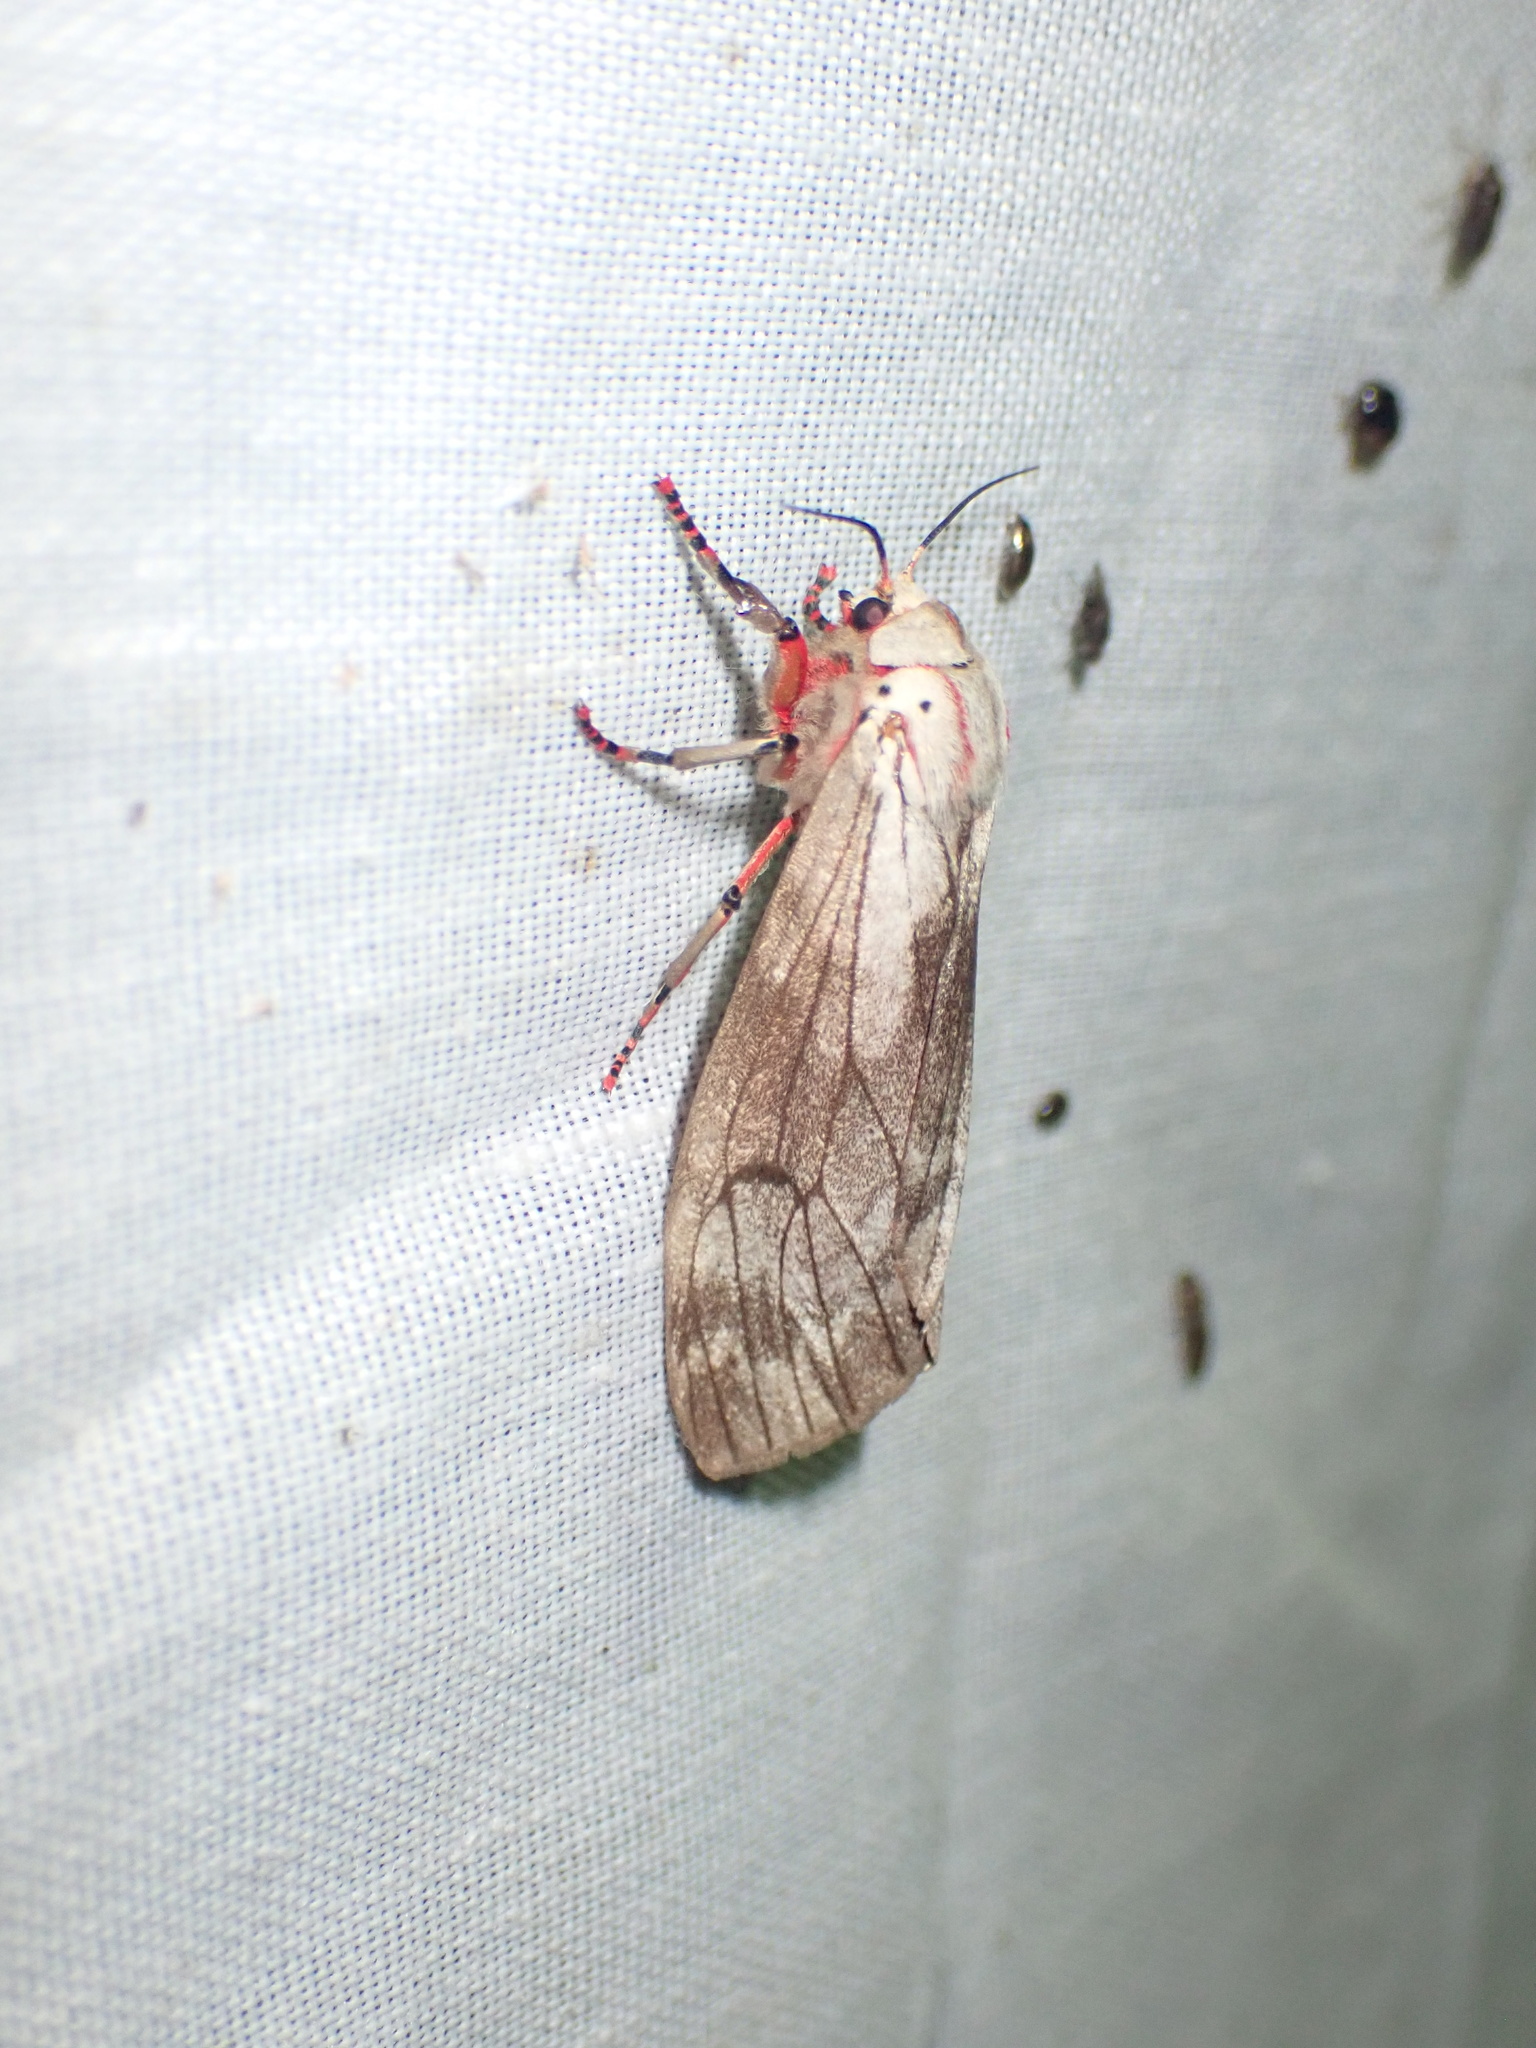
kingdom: Animalia
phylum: Arthropoda
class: Insecta
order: Lepidoptera
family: Erebidae
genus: Teracotona
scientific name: Teracotona rhodophaea
